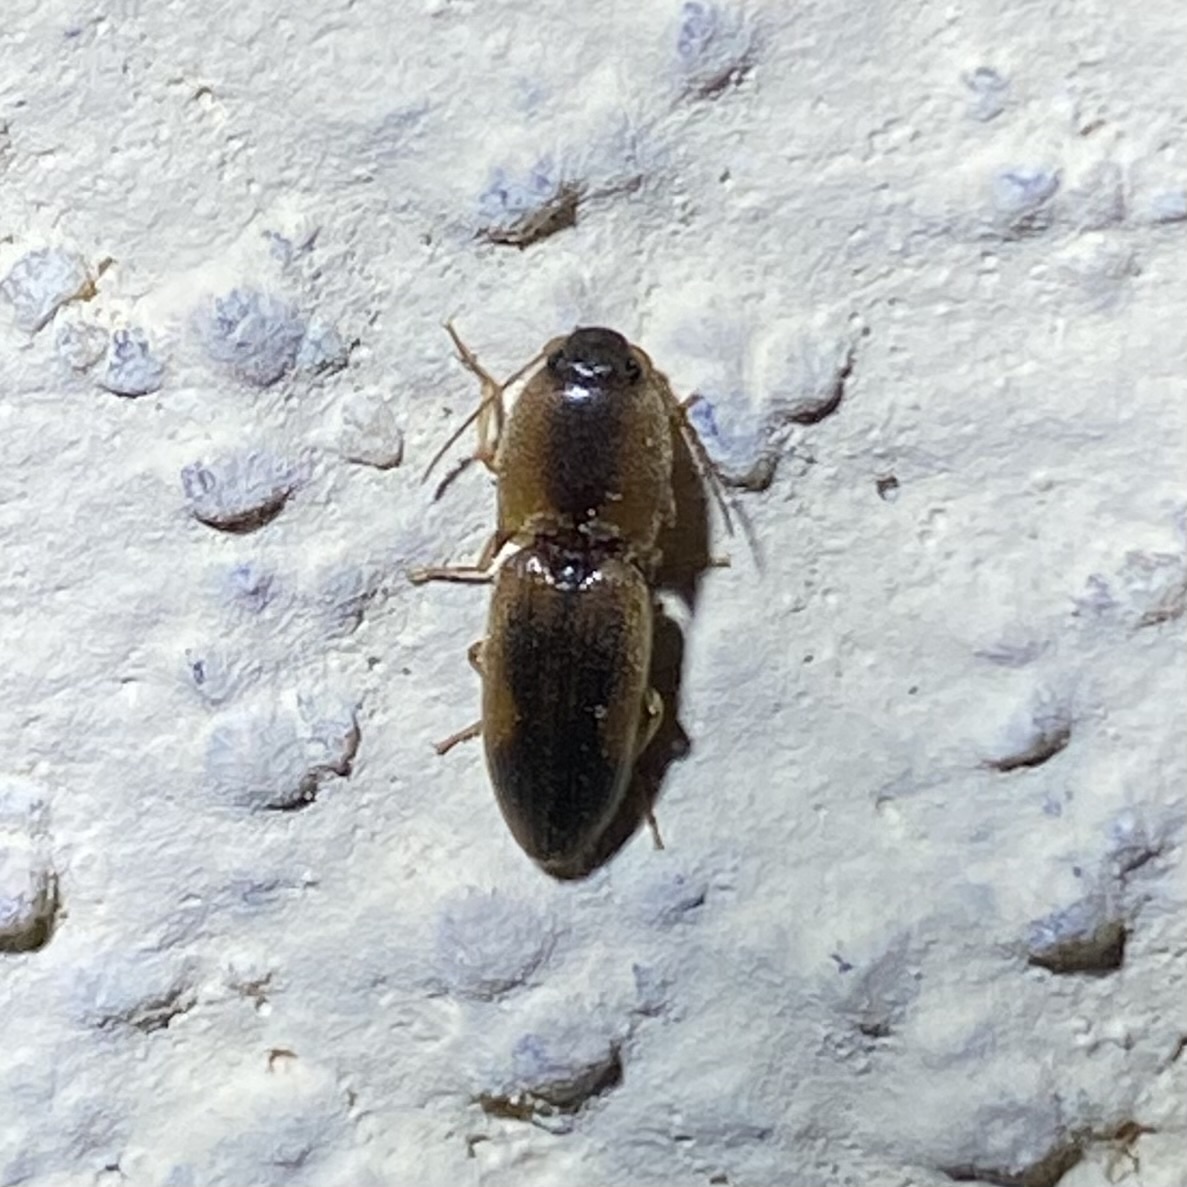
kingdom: Animalia
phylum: Arthropoda
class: Insecta
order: Coleoptera
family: Elateridae
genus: Aeolus
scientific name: Aeolus
